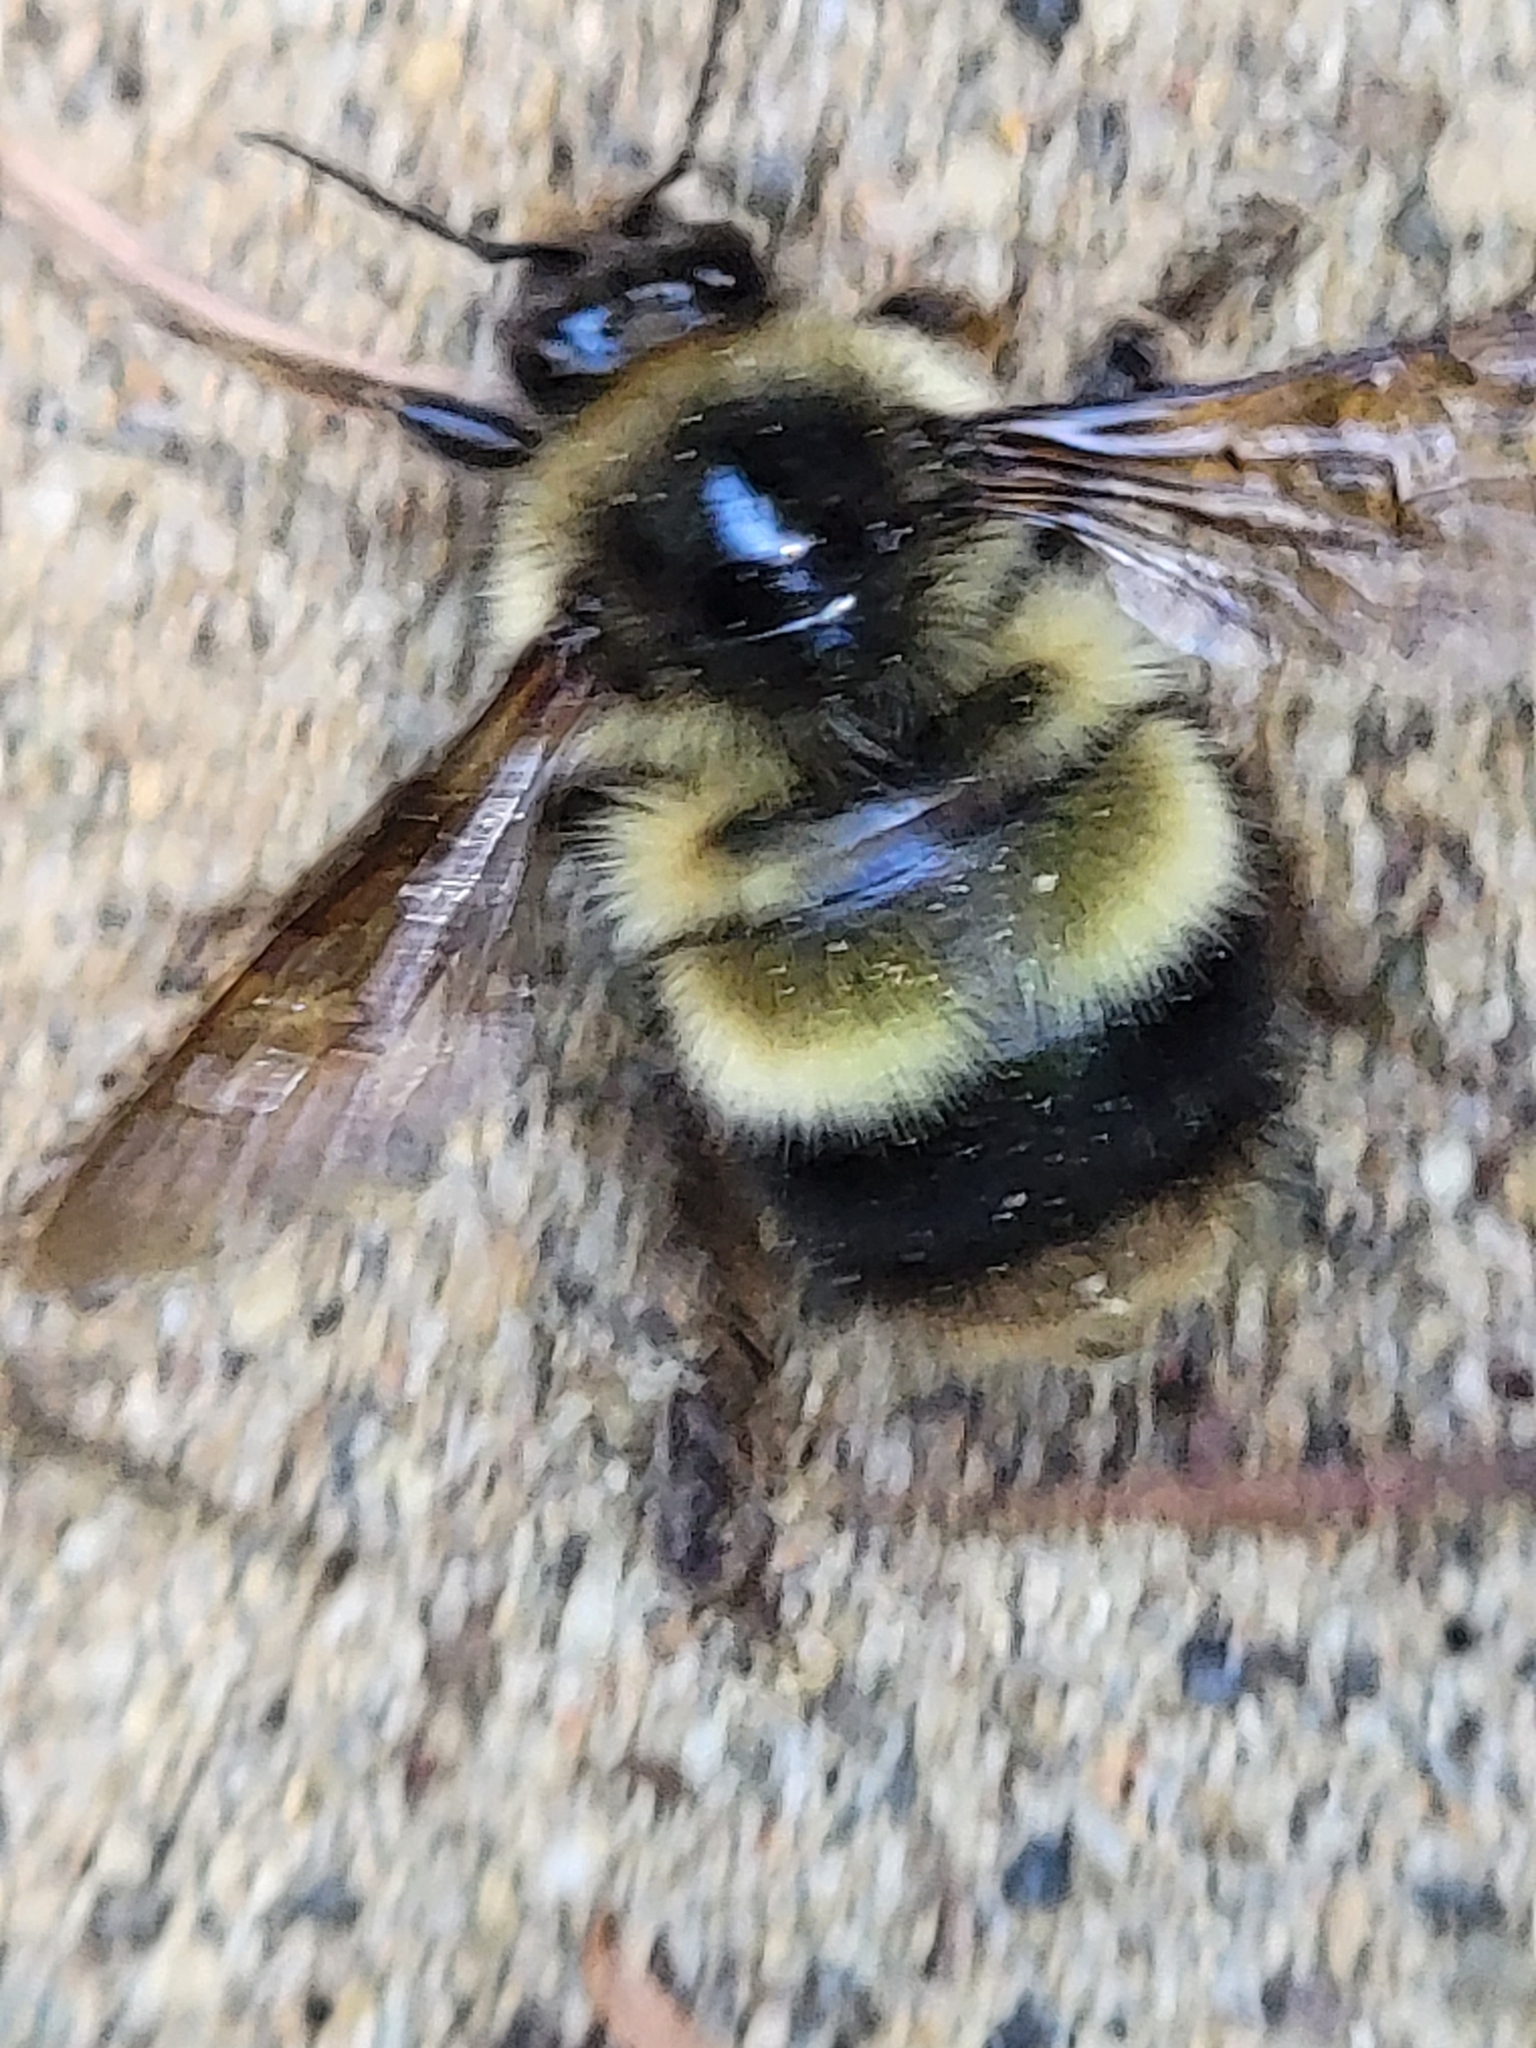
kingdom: Animalia
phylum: Arthropoda
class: Insecta
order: Hymenoptera
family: Apidae
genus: Bombus
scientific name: Bombus sitkensis
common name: Sitka bumble bee
